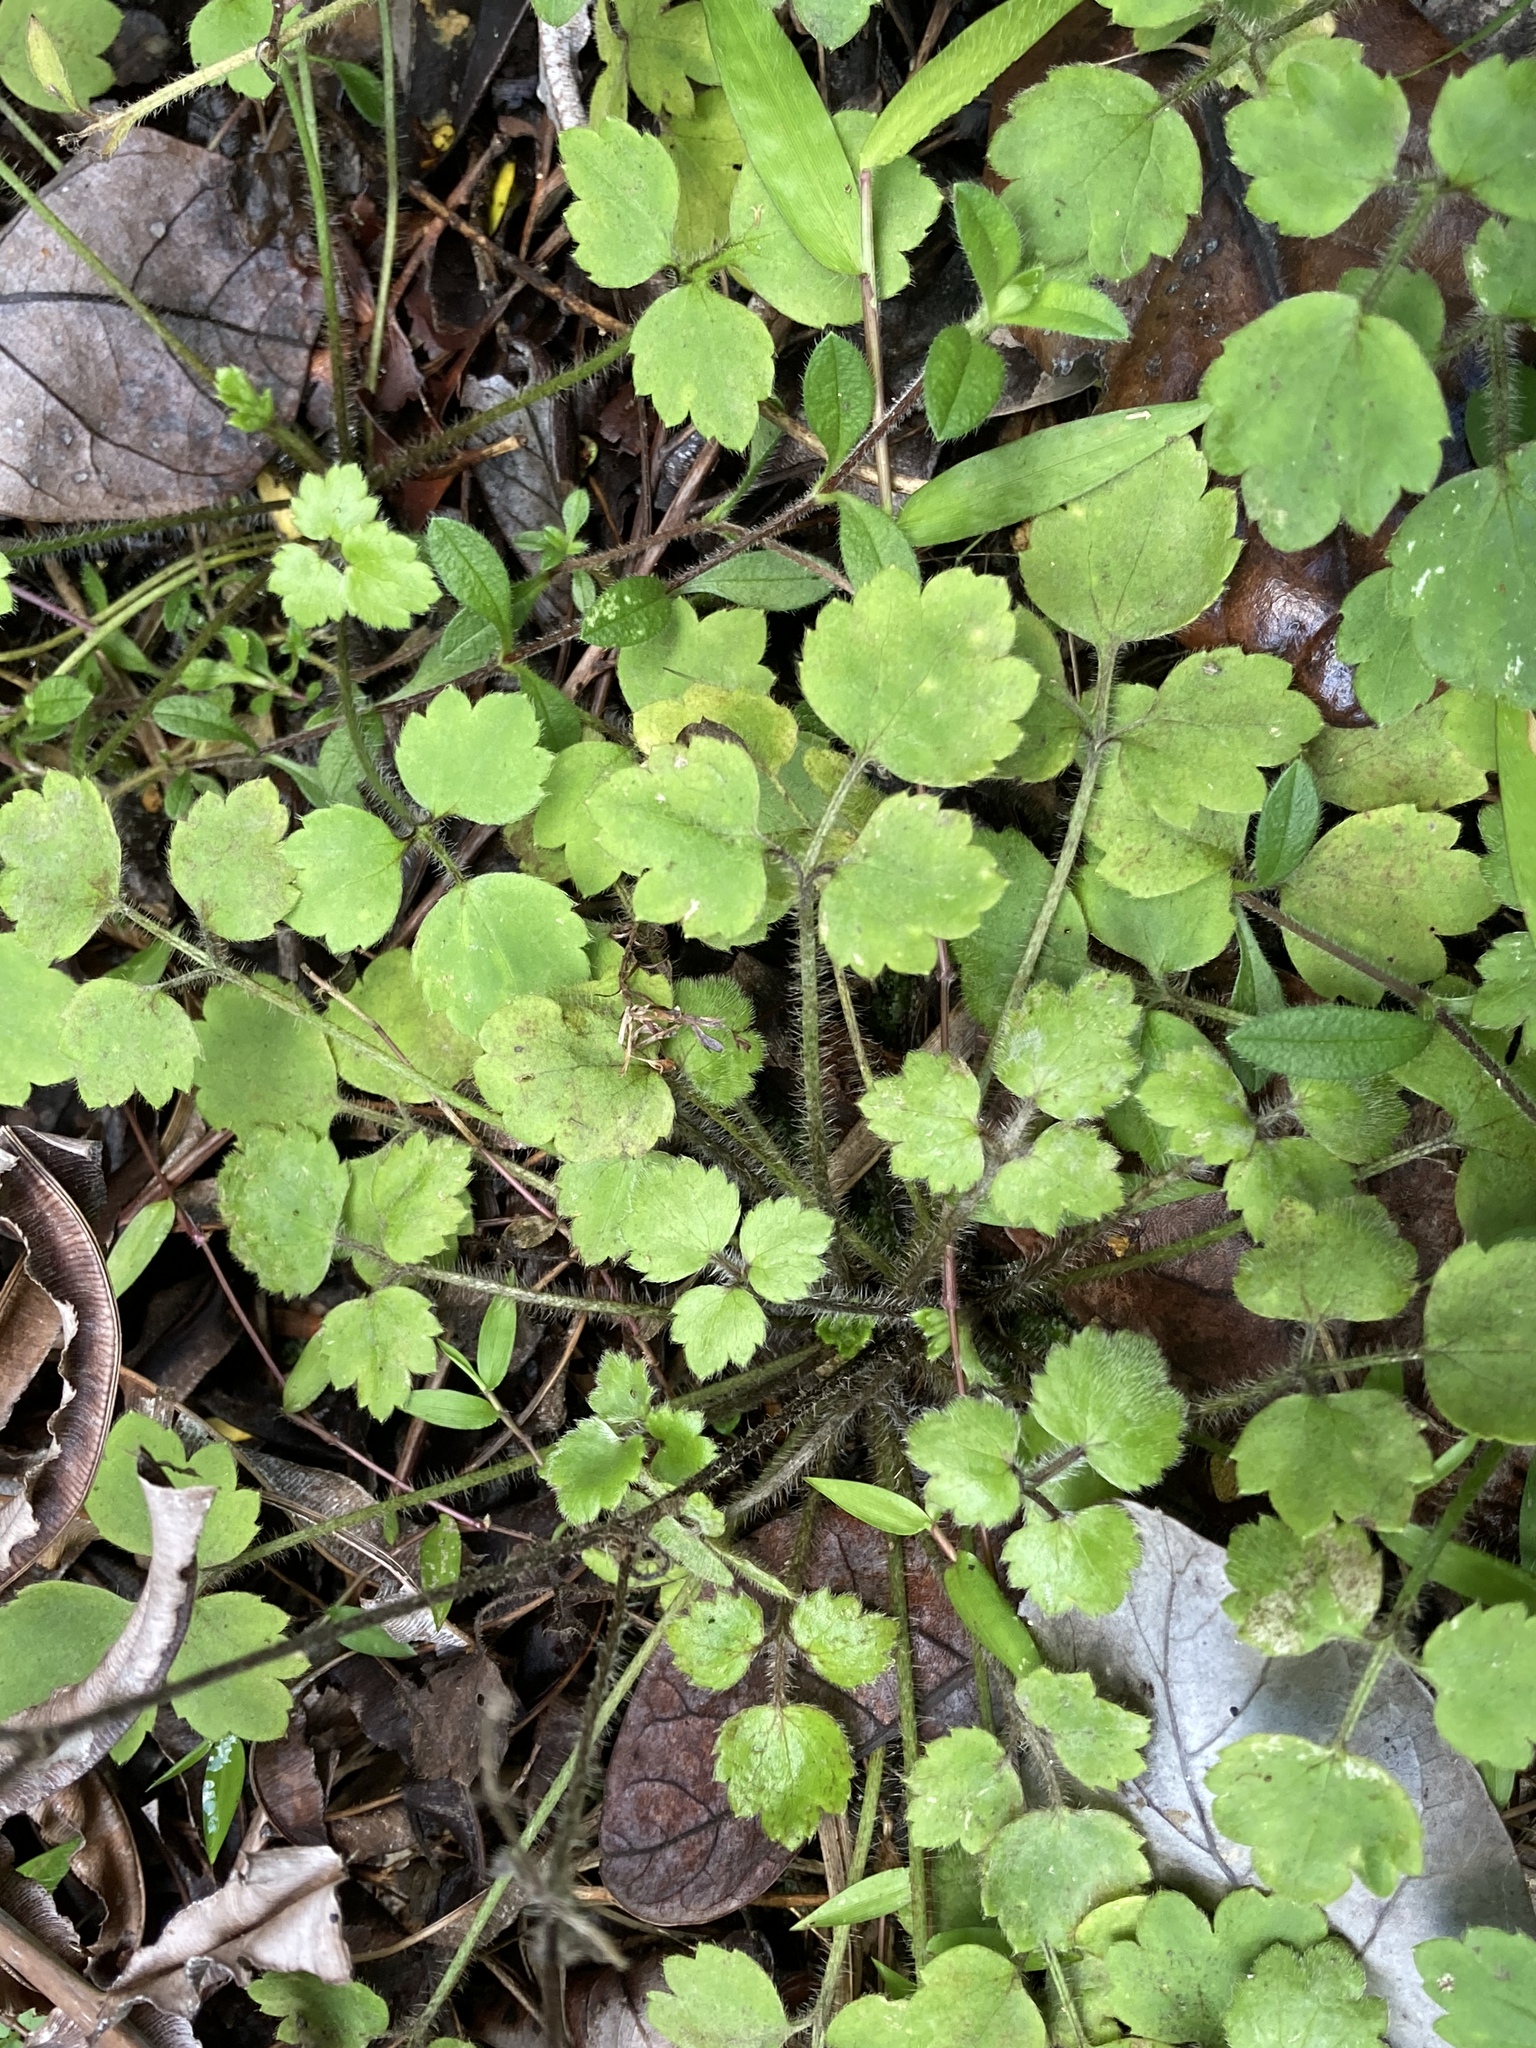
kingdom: Plantae
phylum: Tracheophyta
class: Magnoliopsida
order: Ranunculales
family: Ranunculaceae
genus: Ranunculus
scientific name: Ranunculus reflexus
